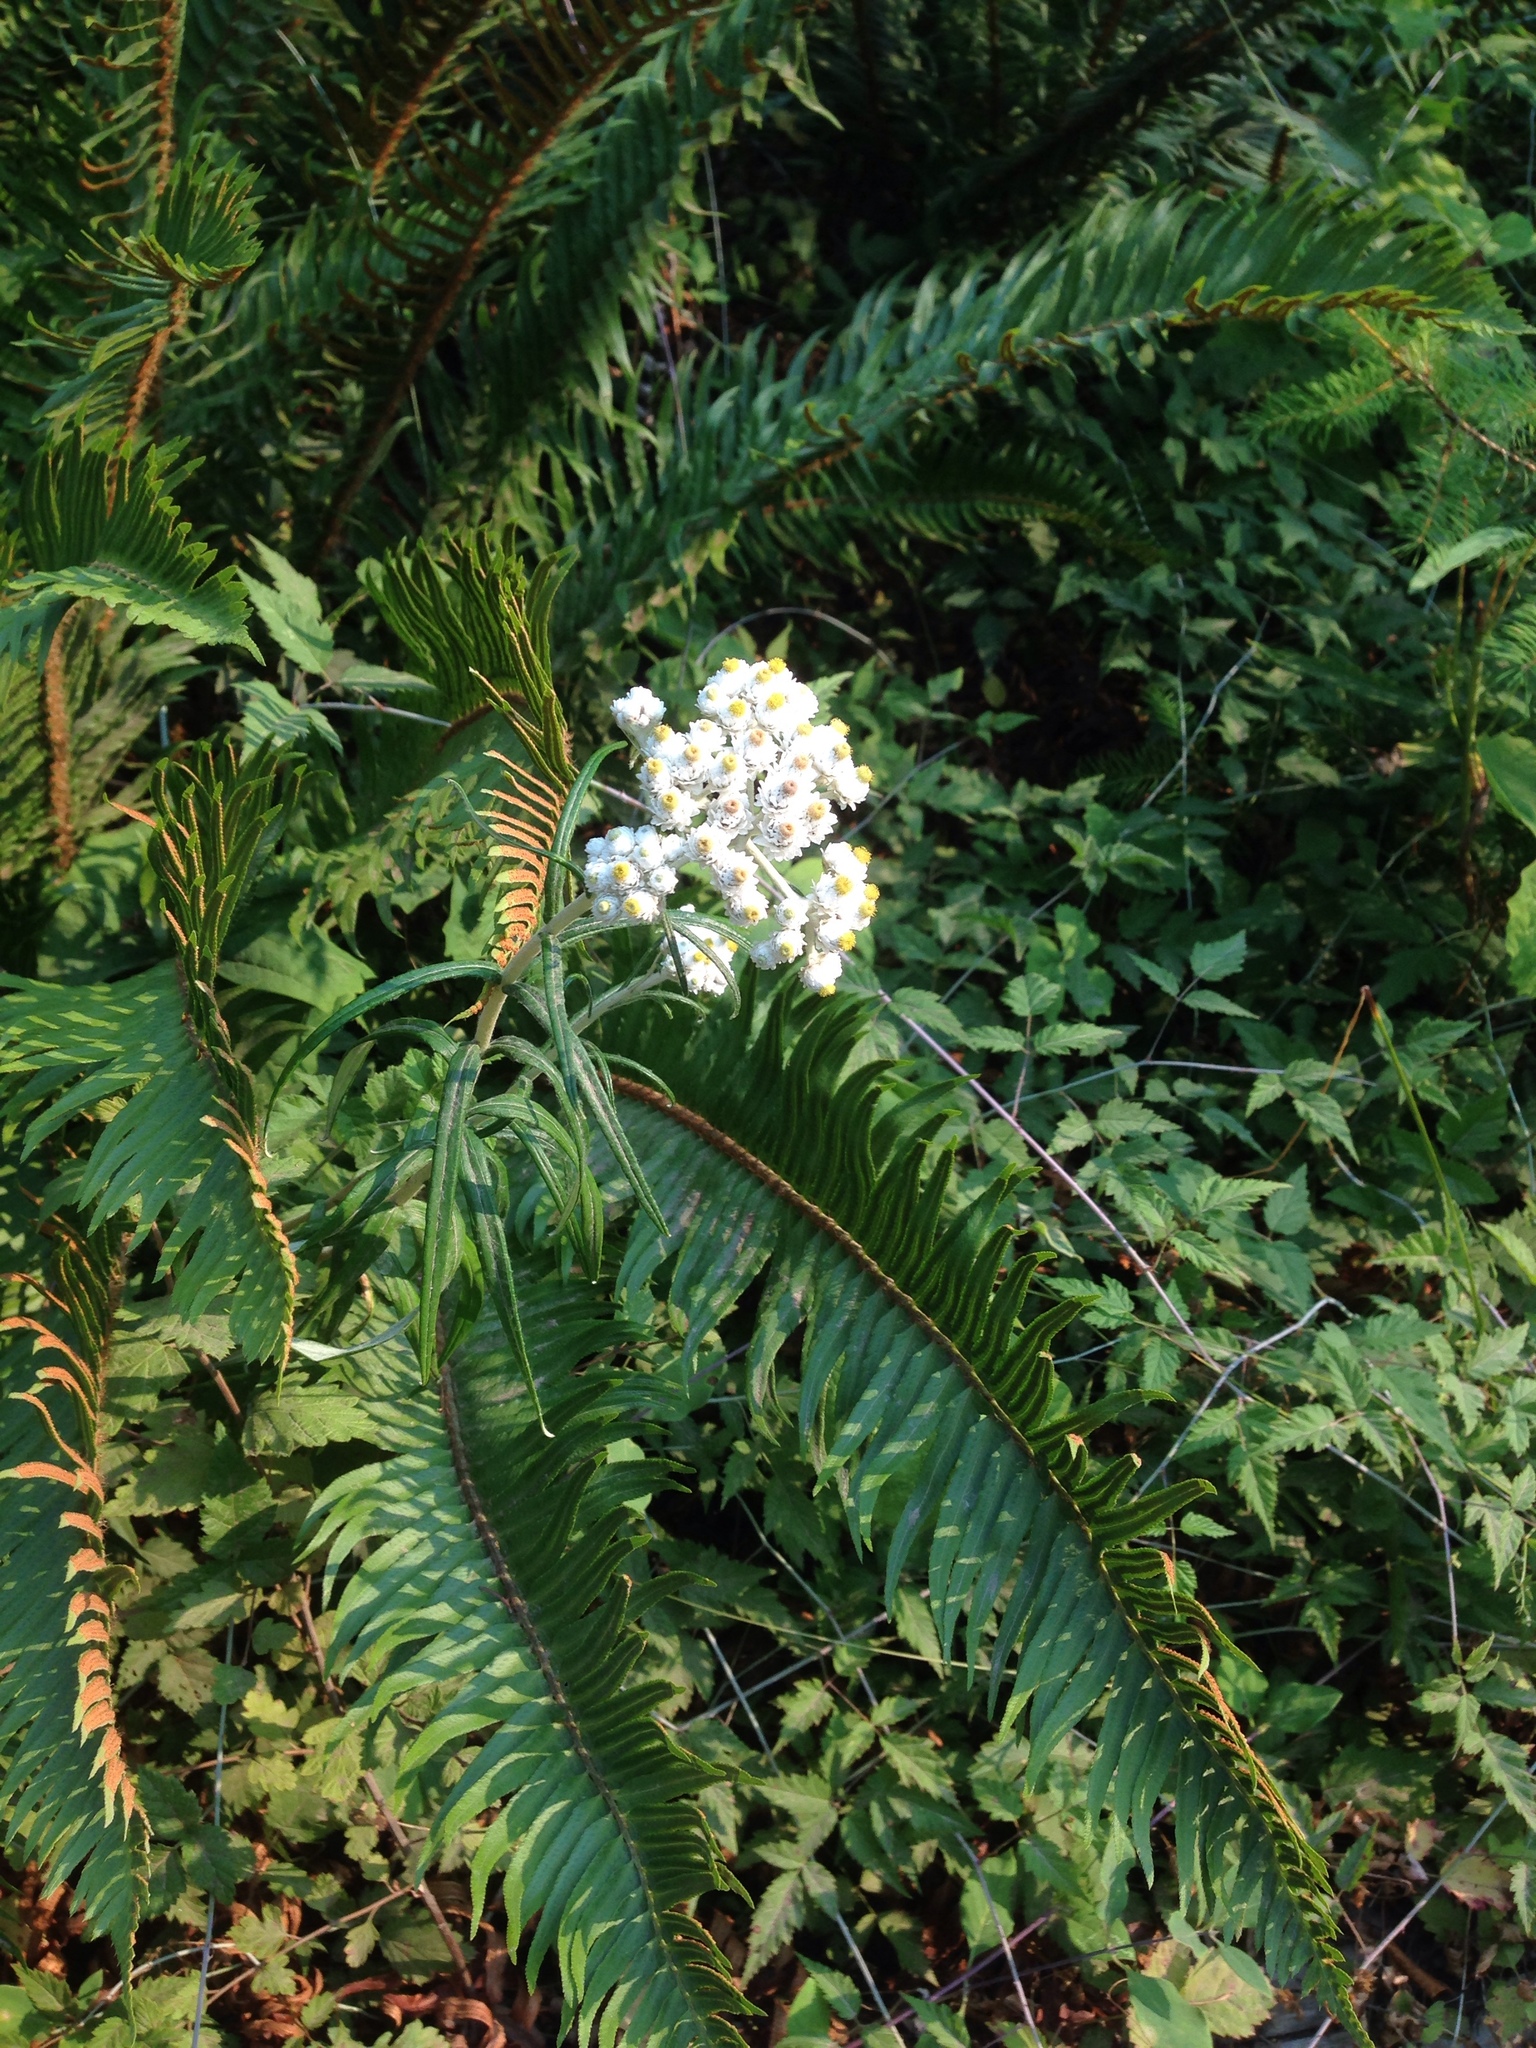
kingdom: Plantae
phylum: Tracheophyta
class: Magnoliopsida
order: Asterales
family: Asteraceae
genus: Anaphalis
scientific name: Anaphalis margaritacea
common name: Pearly everlasting
